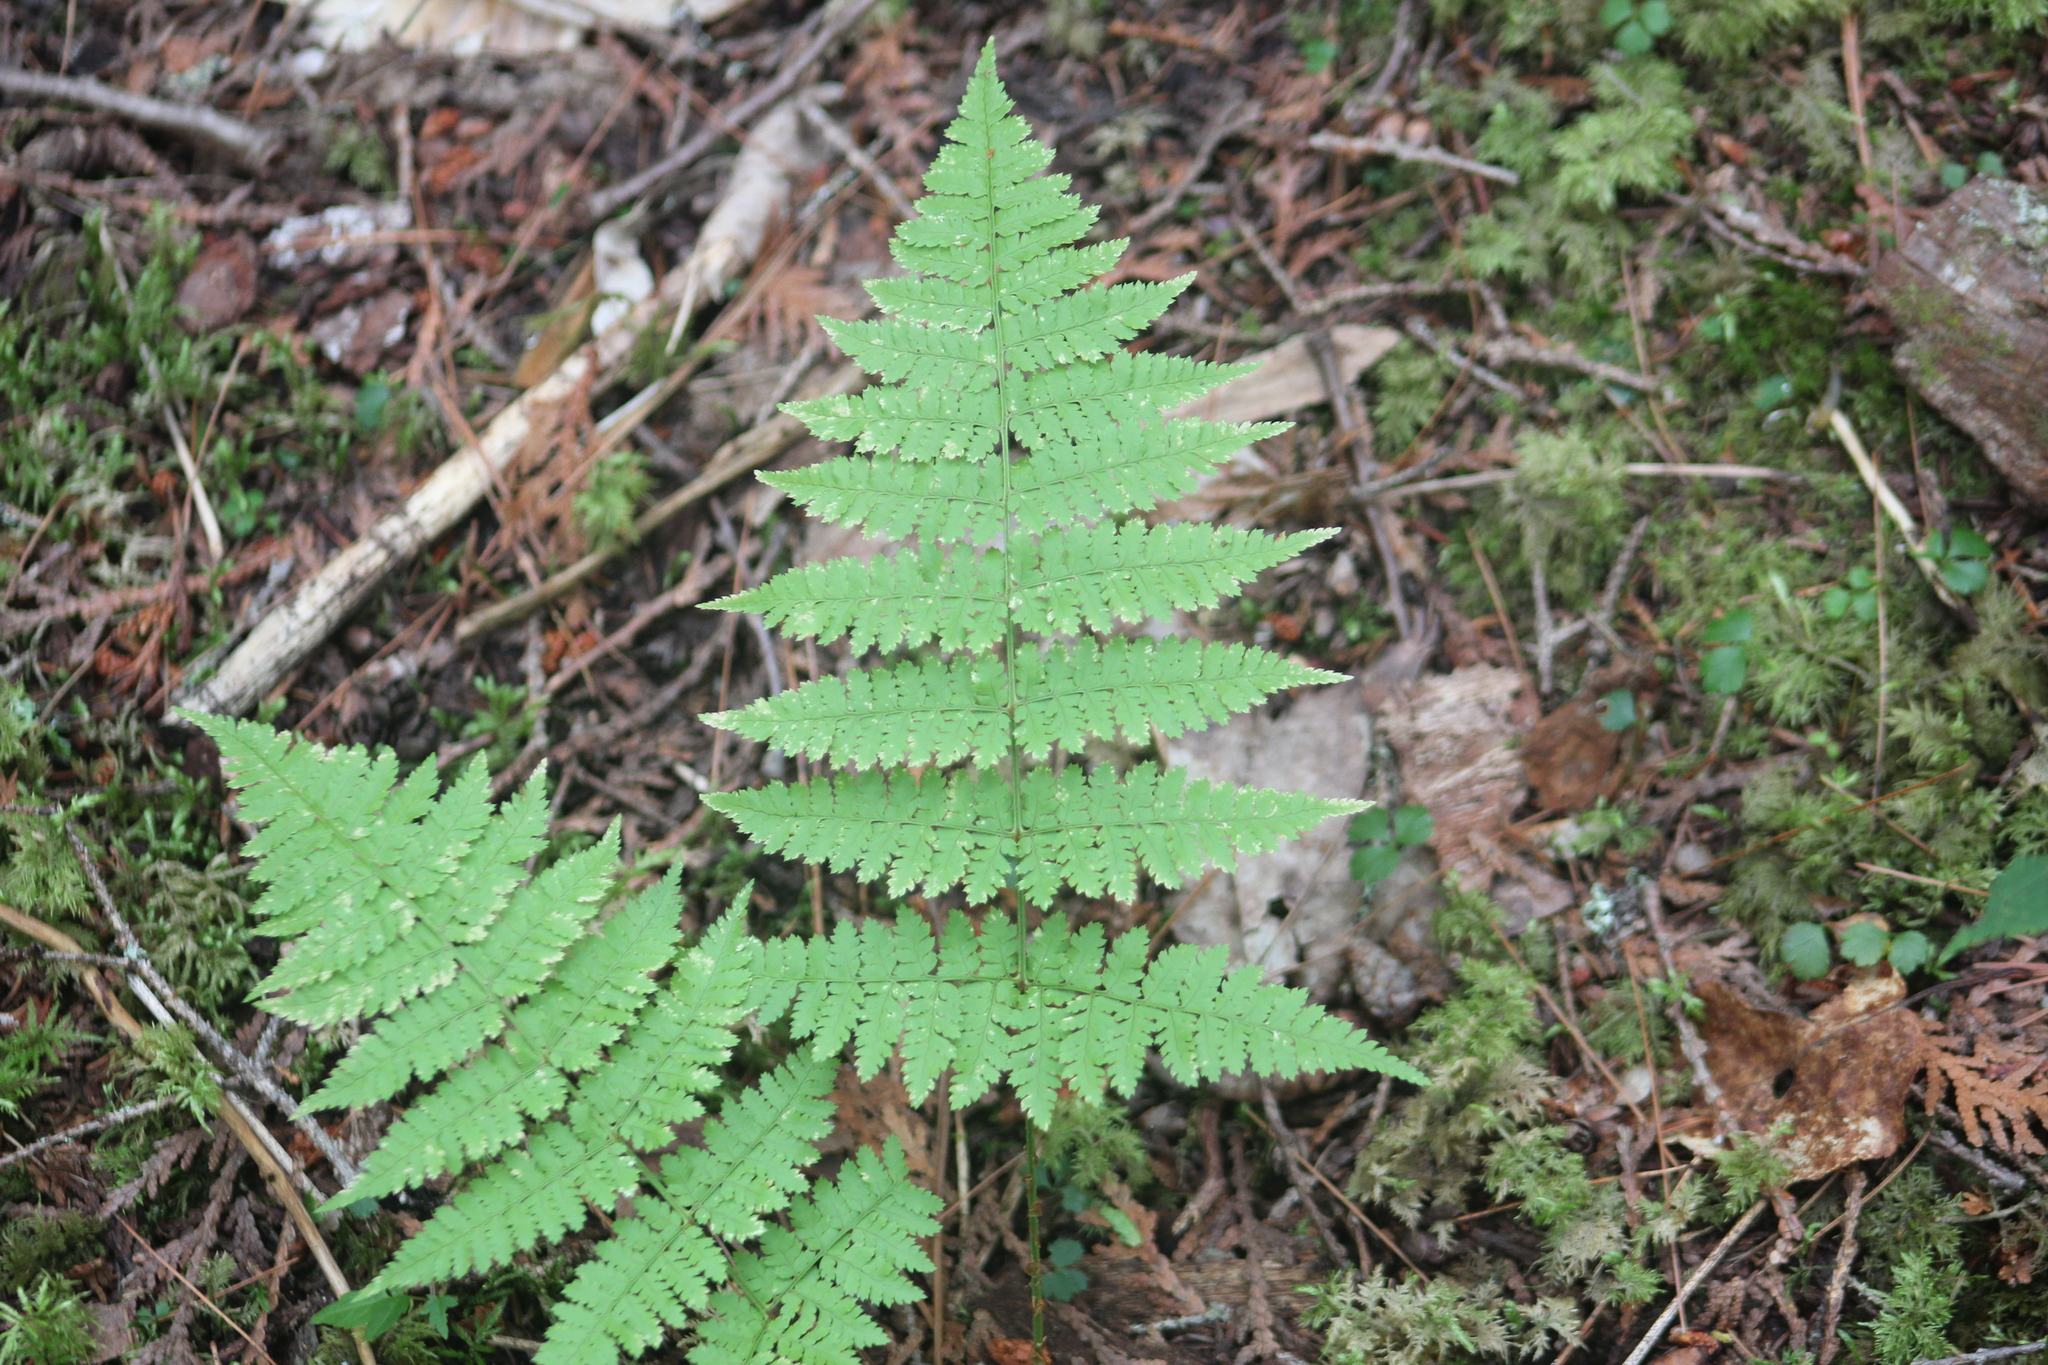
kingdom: Plantae
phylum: Tracheophyta
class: Polypodiopsida
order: Polypodiales
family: Dryopteridaceae
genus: Dryopteris
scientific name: Dryopteris intermedia
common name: Evergreen wood fern
